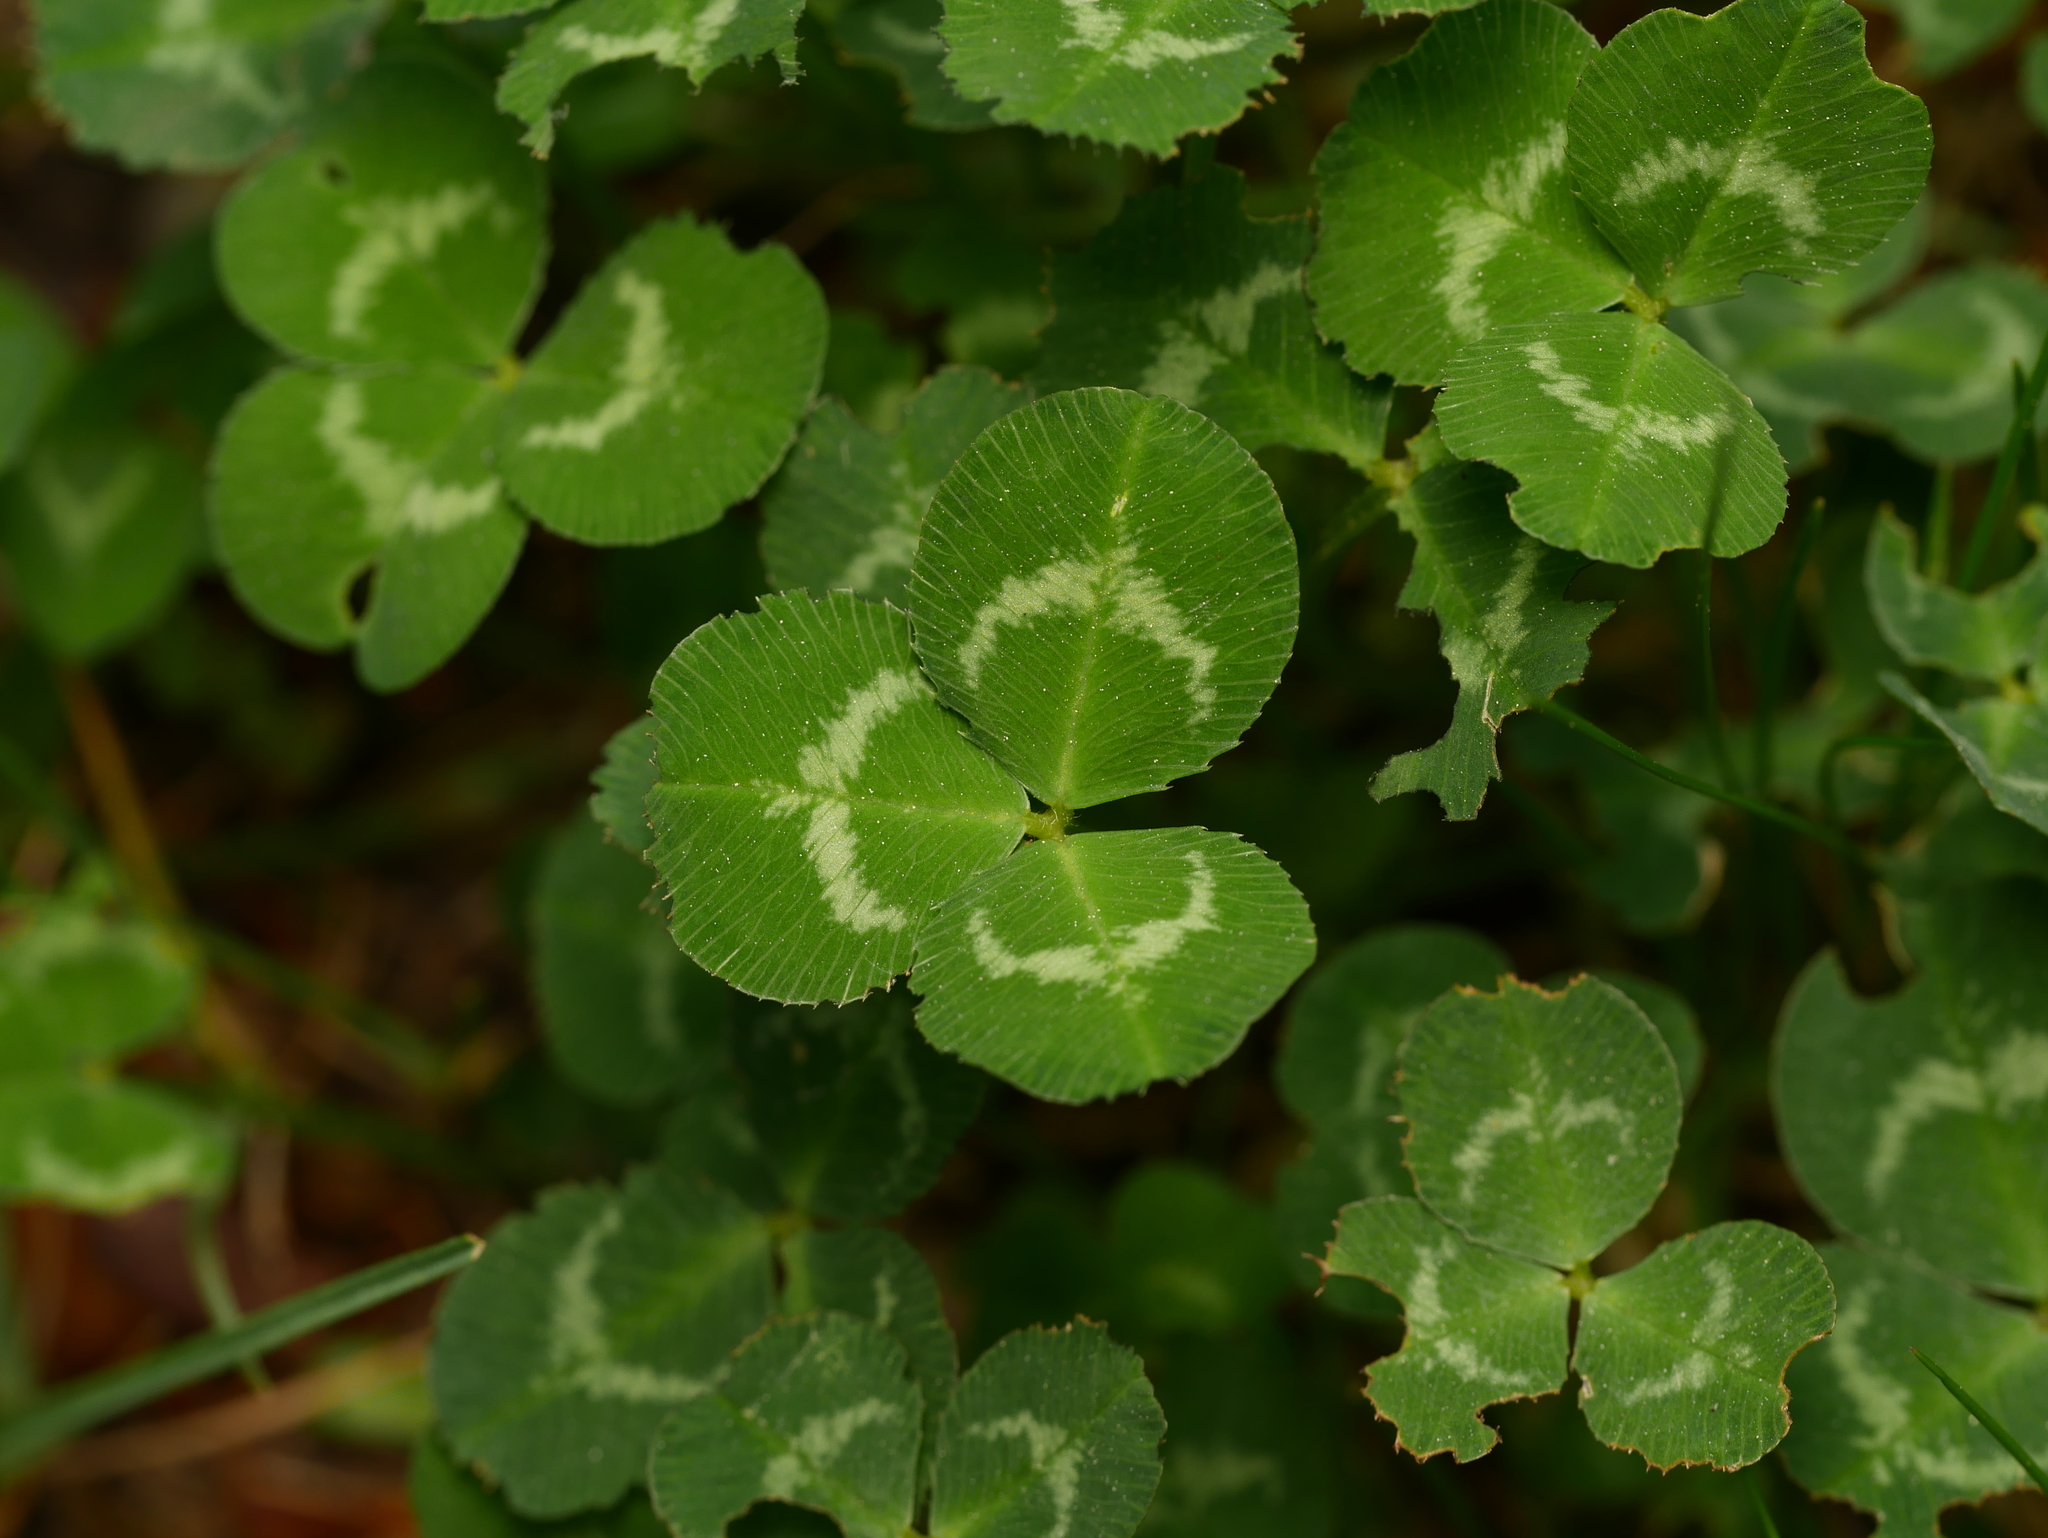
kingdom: Plantae
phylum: Tracheophyta
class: Magnoliopsida
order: Fabales
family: Fabaceae
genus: Trifolium
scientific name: Trifolium repens
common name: White clover
